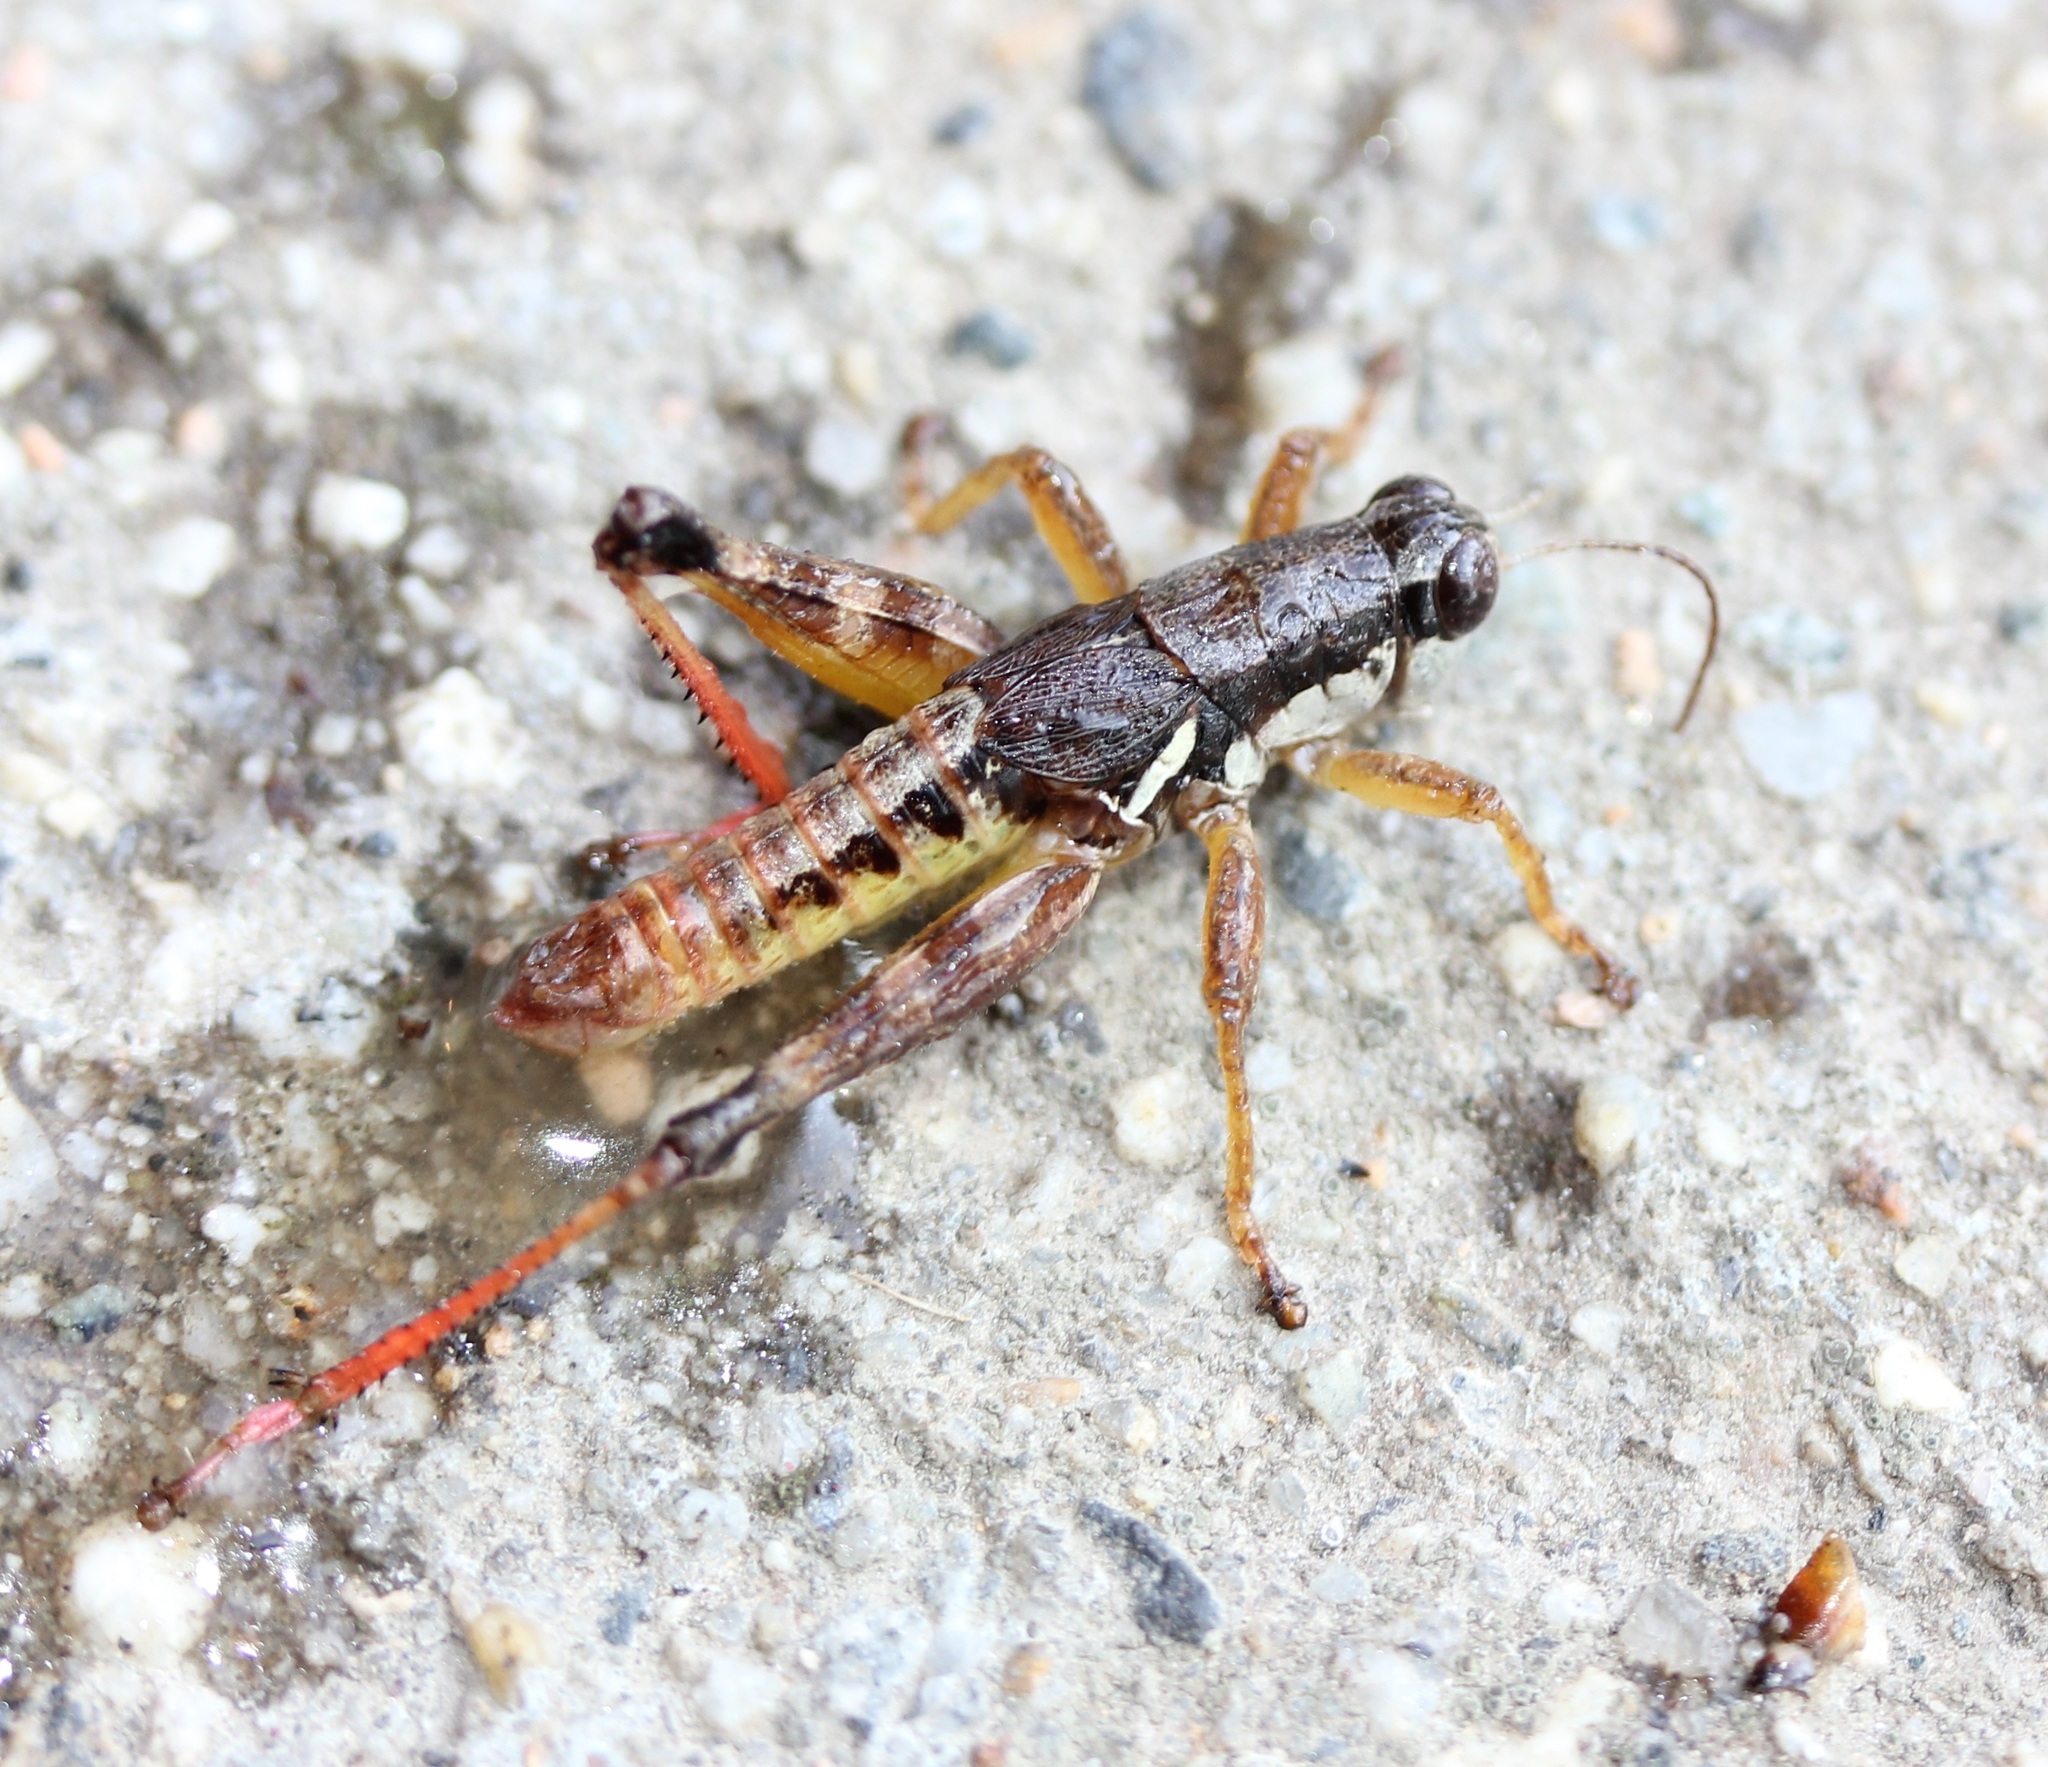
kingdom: Animalia
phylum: Arthropoda
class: Insecta
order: Orthoptera
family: Acrididae
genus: Melanoplus
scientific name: Melanoplus mancus
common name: Smith's spur-throat grasshopper
